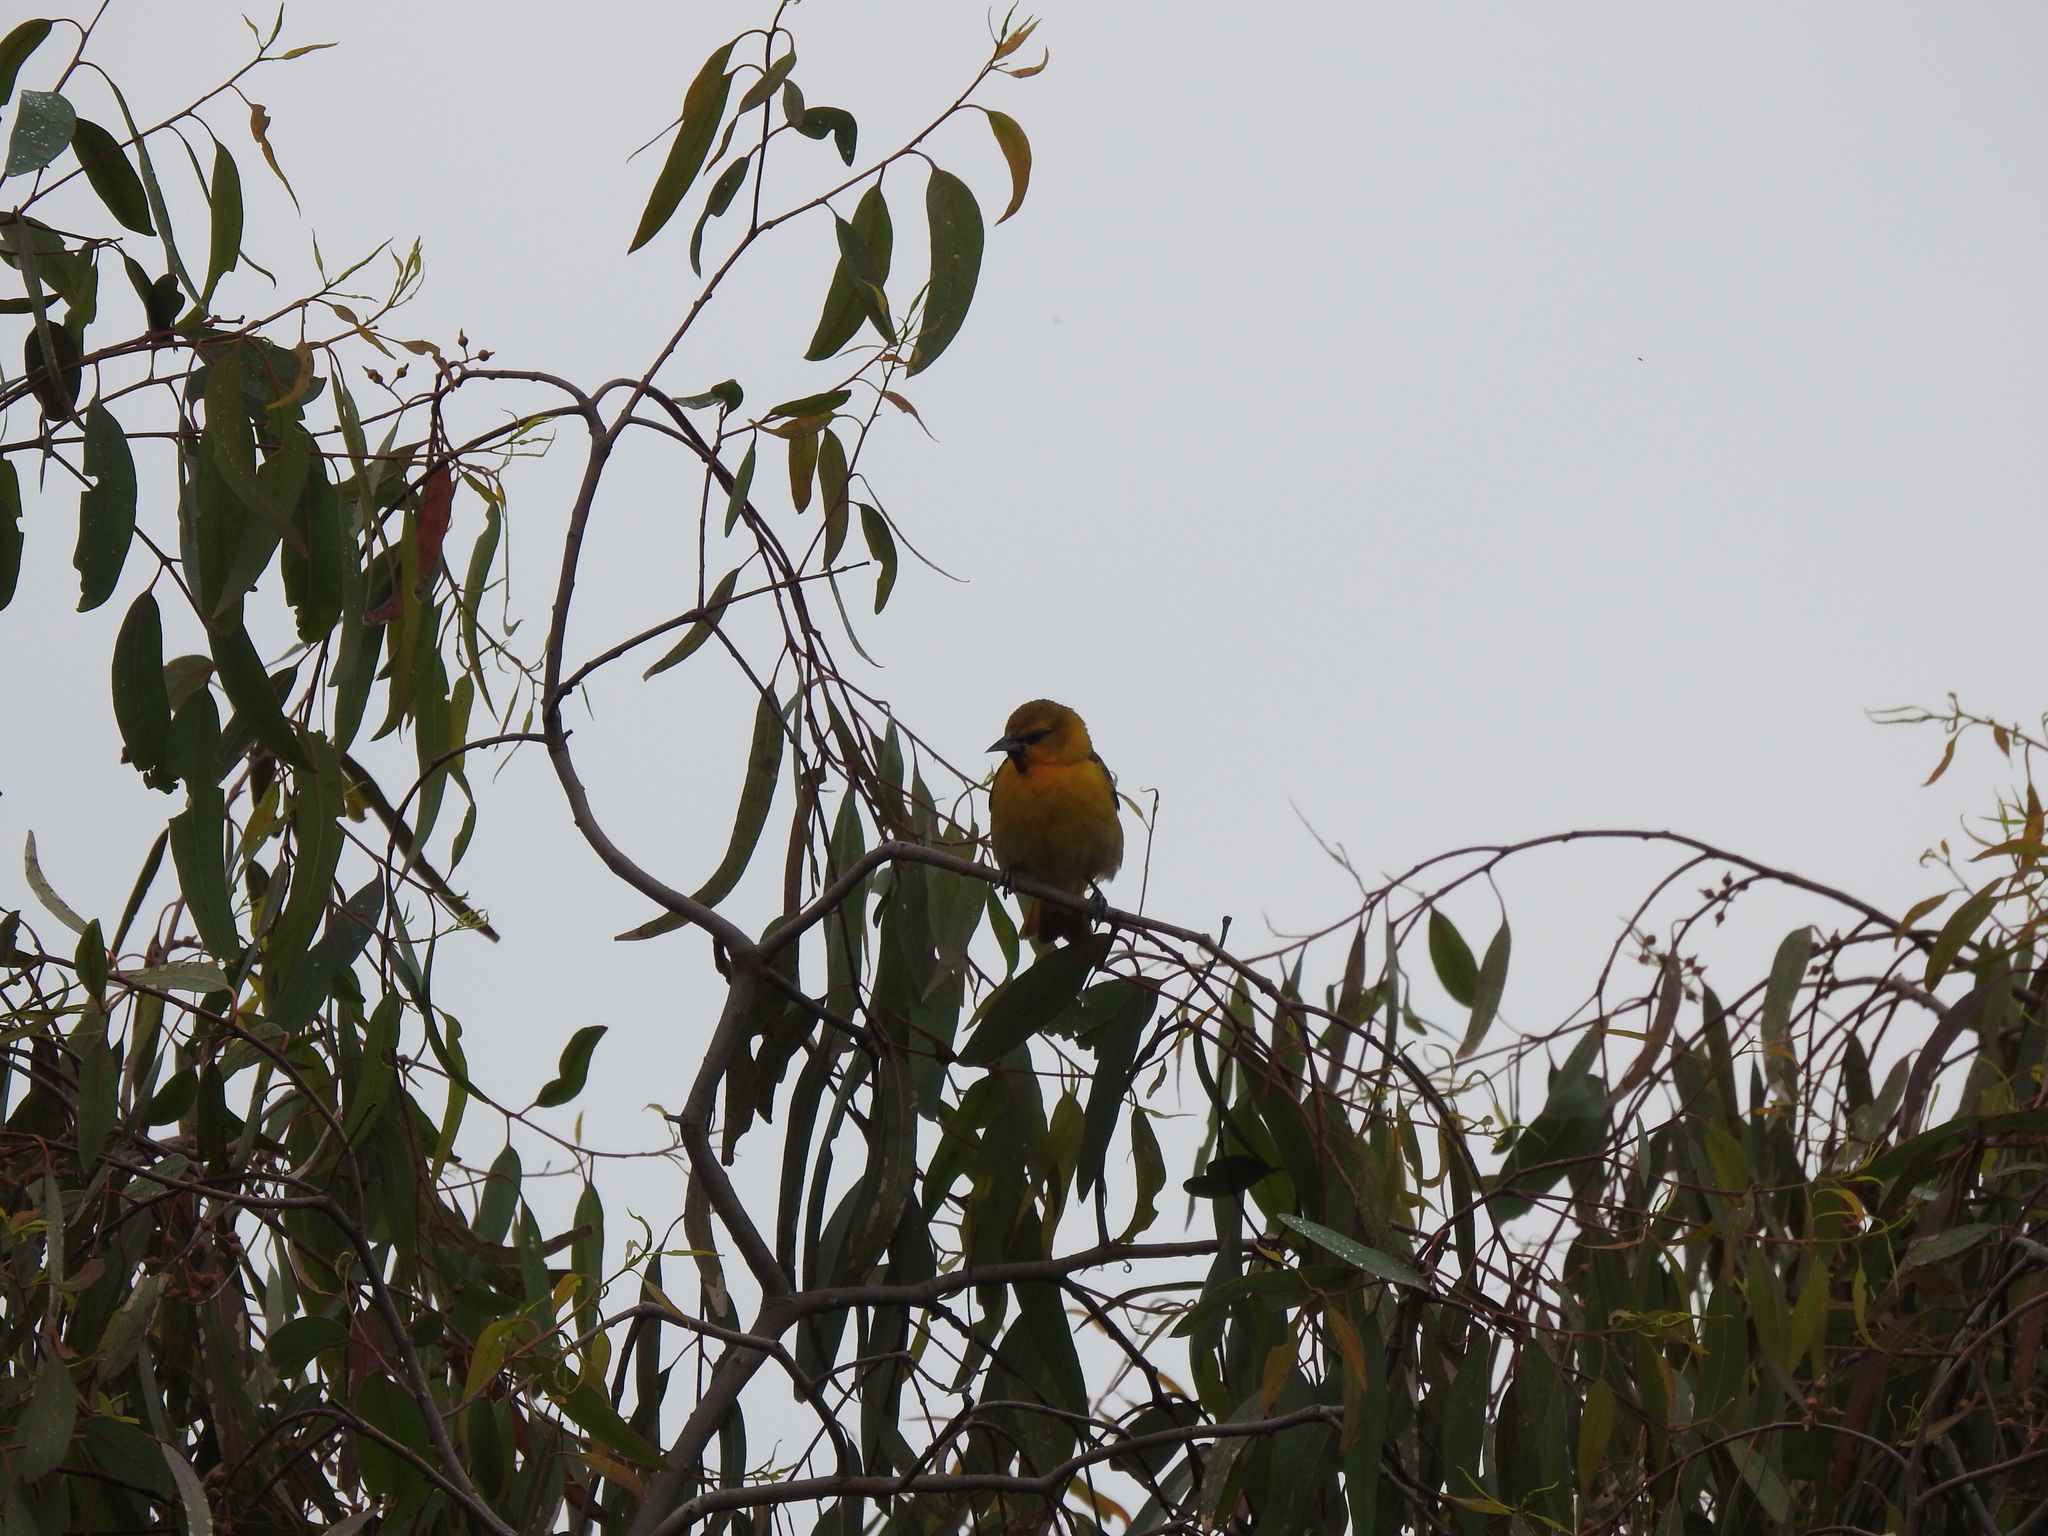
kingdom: Animalia
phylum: Chordata
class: Aves
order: Passeriformes
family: Icteridae
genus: Icterus
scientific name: Icterus bullockii
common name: Bullock's oriole
